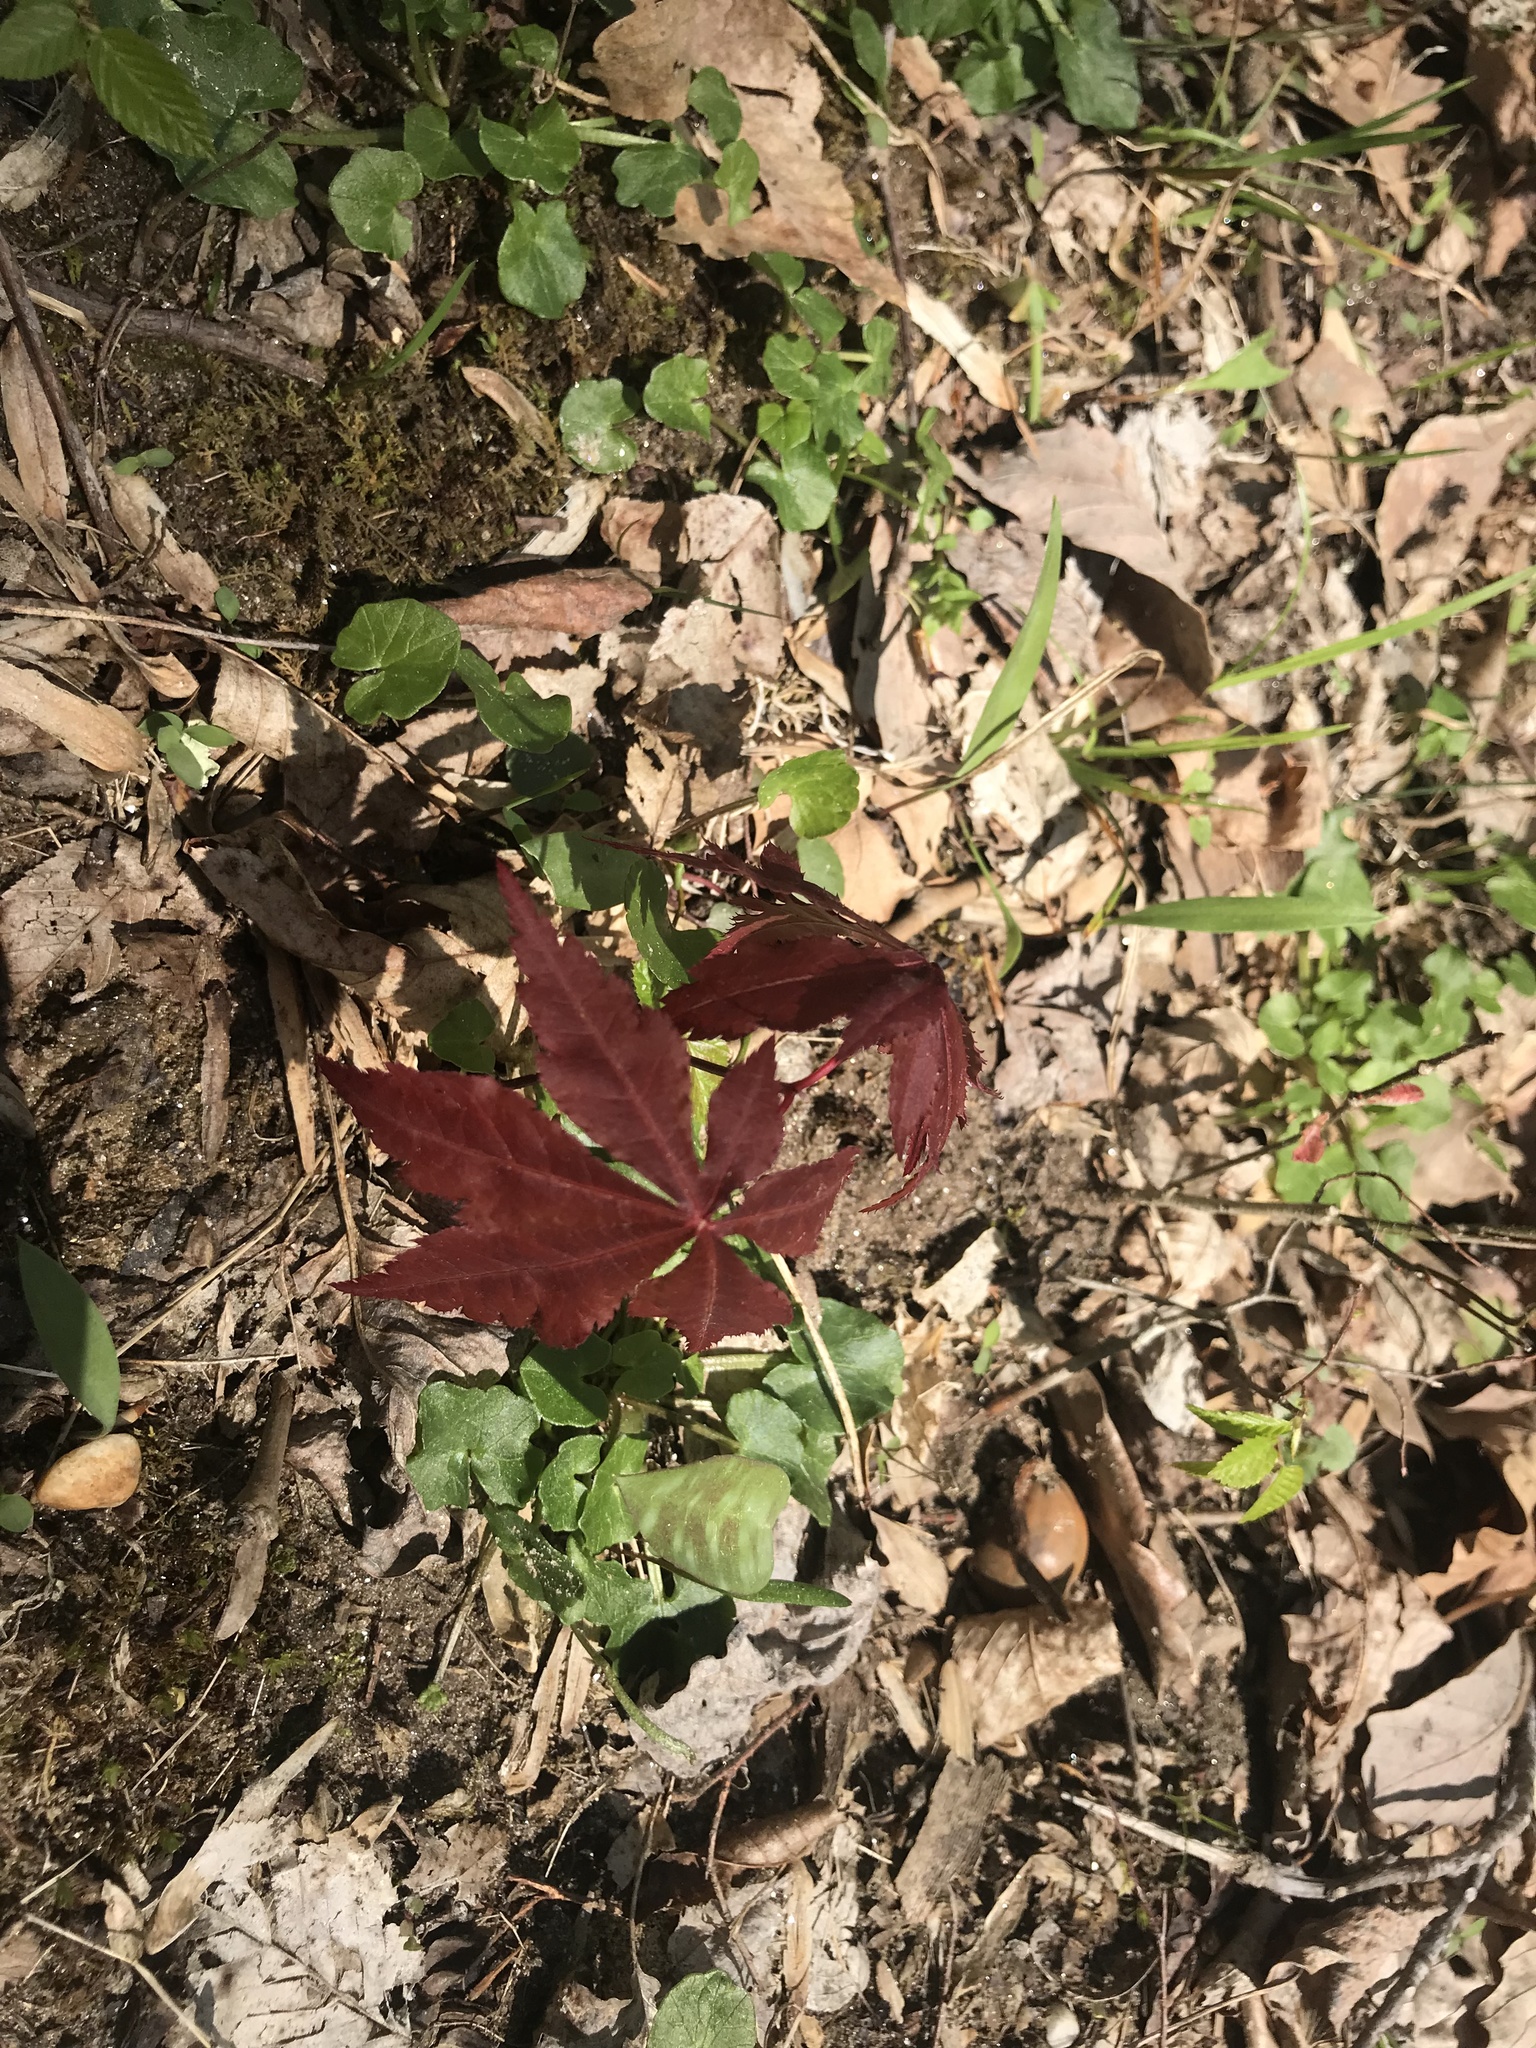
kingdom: Plantae
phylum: Tracheophyta
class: Magnoliopsida
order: Sapindales
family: Sapindaceae
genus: Acer
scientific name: Acer palmatum
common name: Japanese maple
